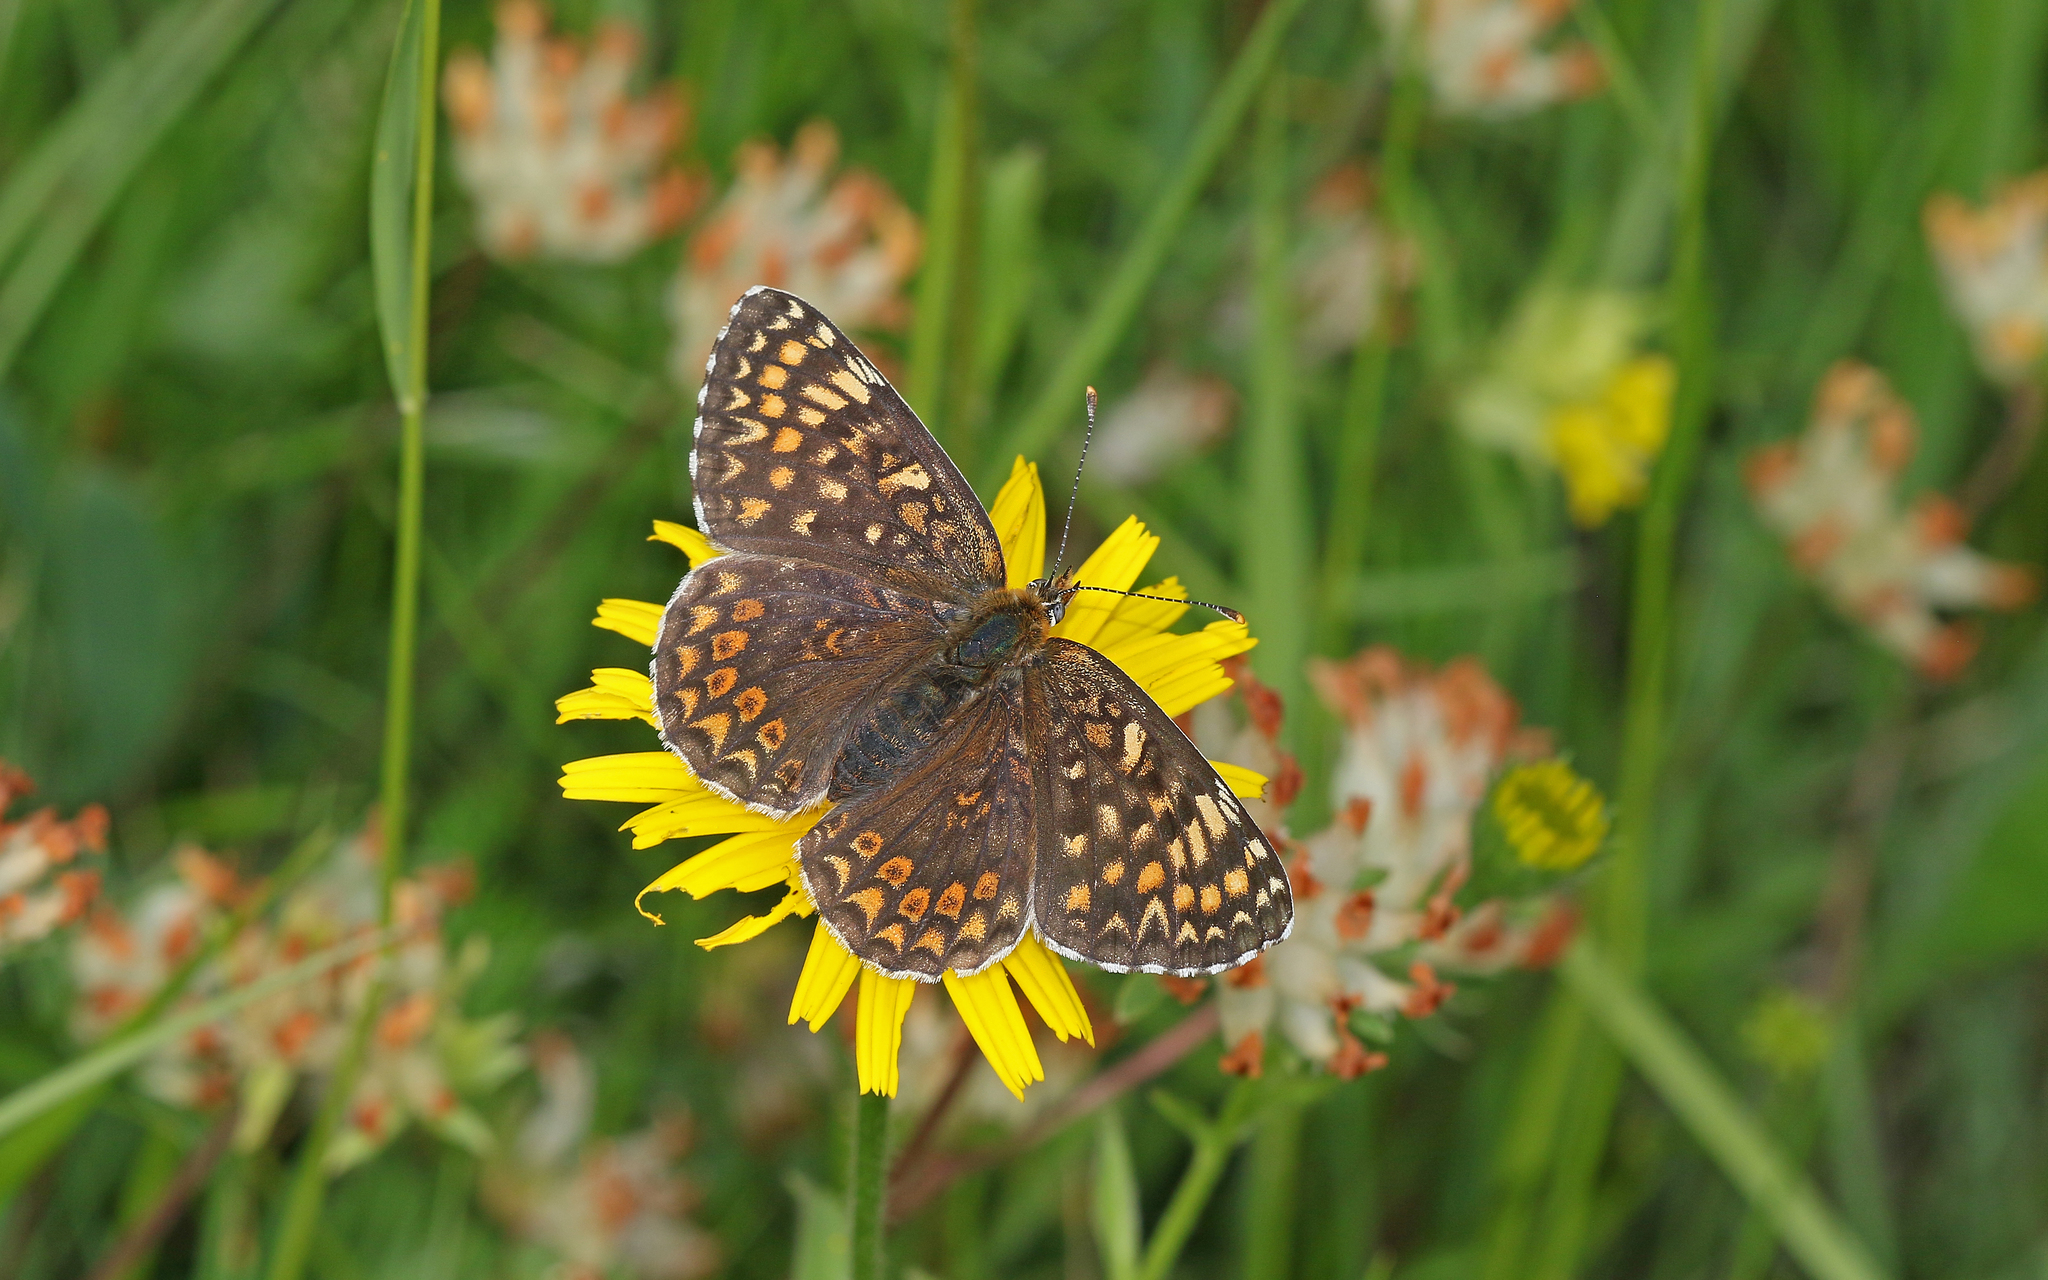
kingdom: Animalia
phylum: Arthropoda
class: Insecta
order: Lepidoptera
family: Nymphalidae
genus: Melitaea
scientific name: Melitaea phoebe
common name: Knapweed fritillary
